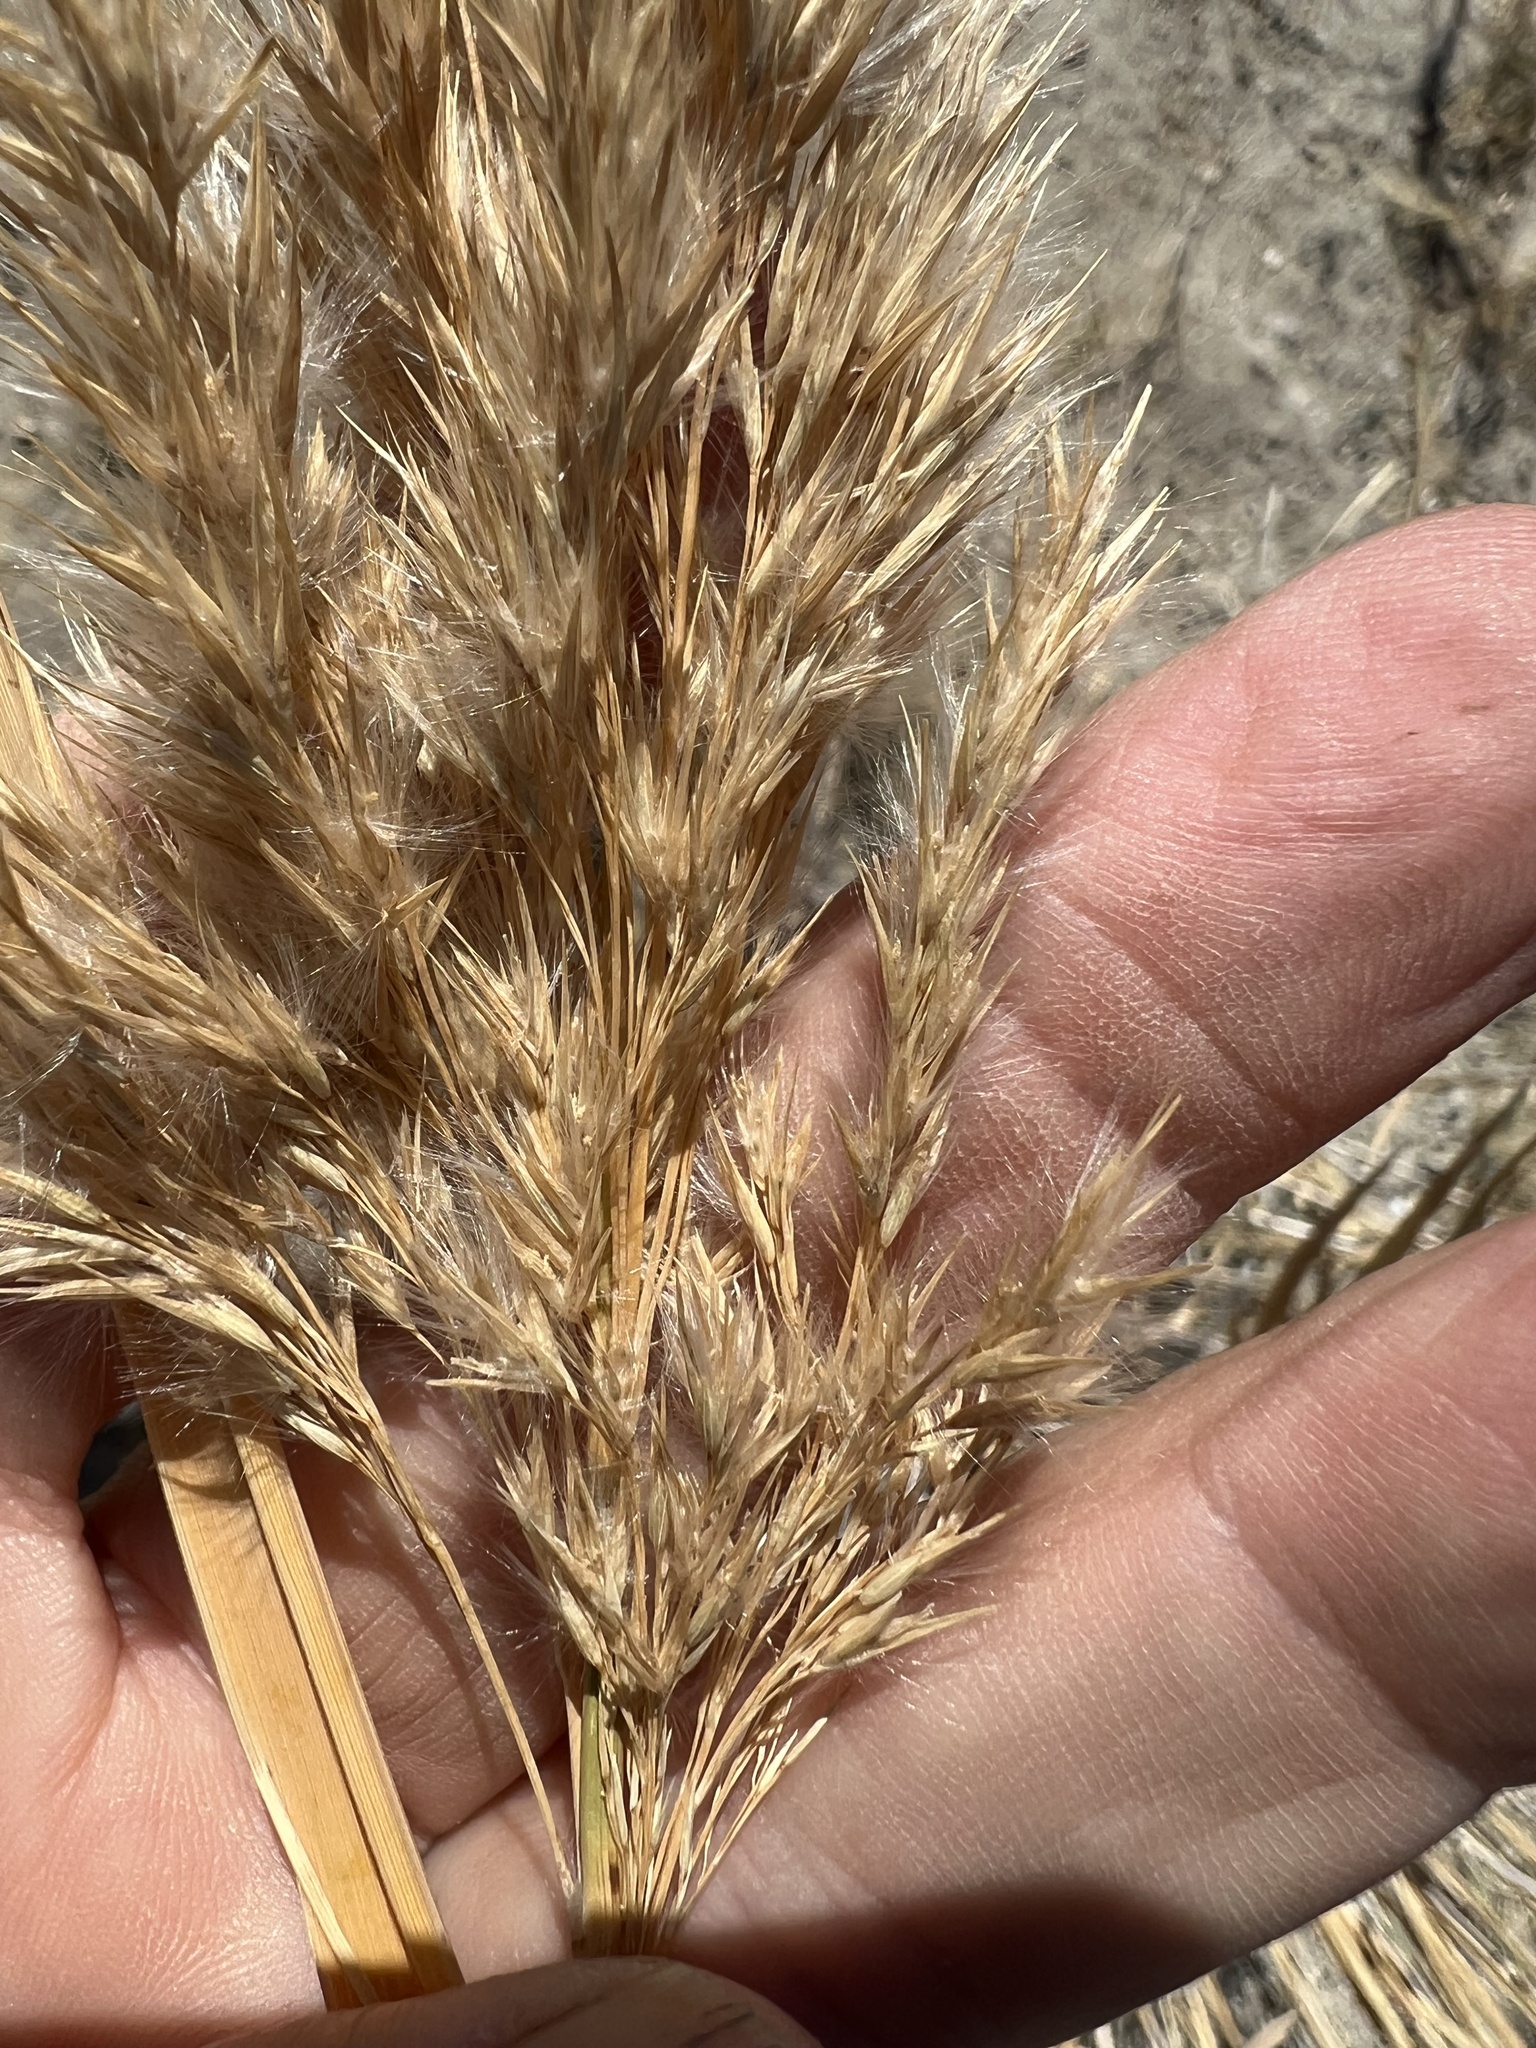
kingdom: Plantae
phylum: Tracheophyta
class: Liliopsida
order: Poales
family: Poaceae
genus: Phragmites
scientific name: Phragmites australis
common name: Common reed
